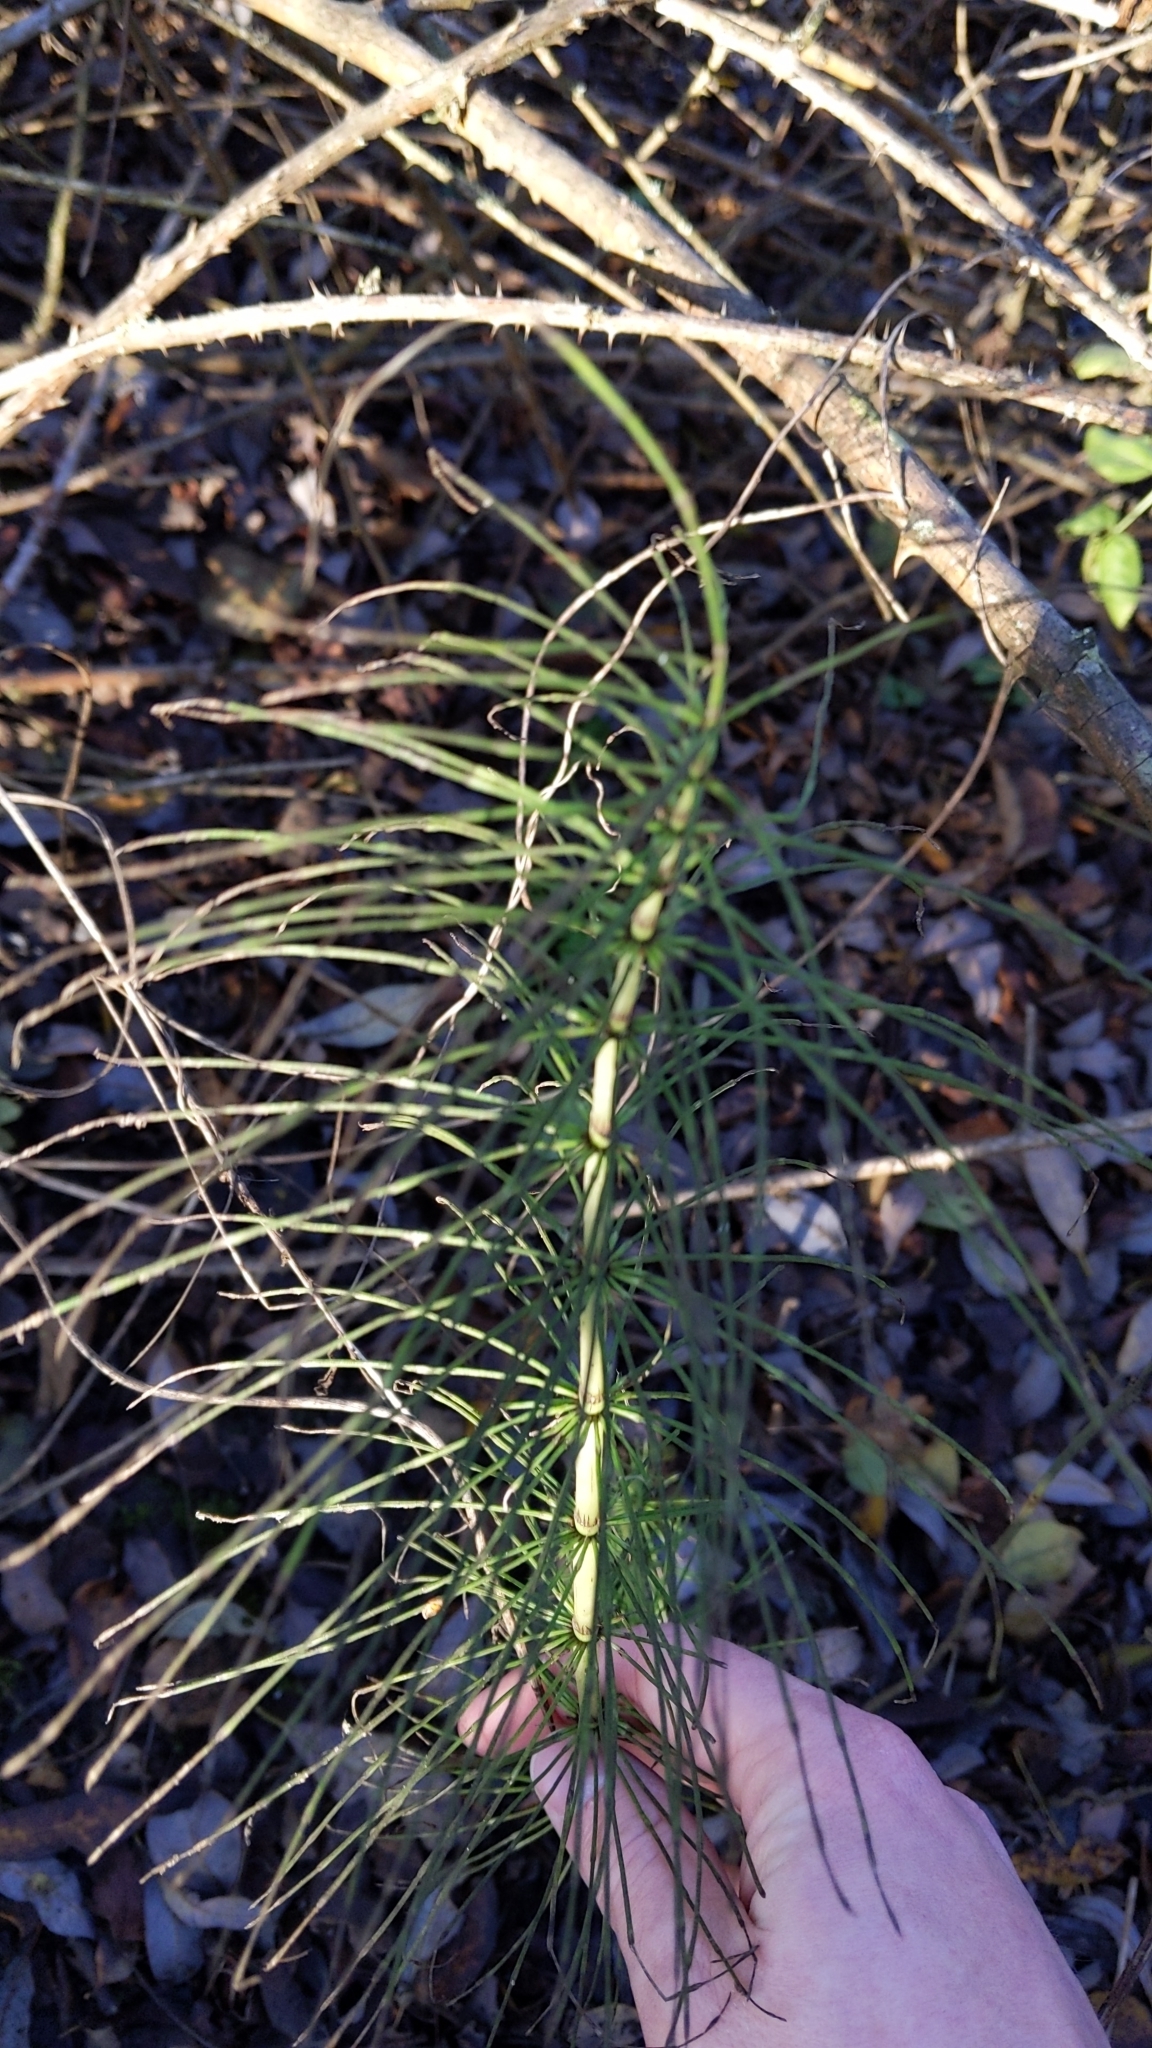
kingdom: Plantae
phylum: Tracheophyta
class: Polypodiopsida
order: Equisetales
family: Equisetaceae
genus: Equisetum
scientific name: Equisetum telmateia
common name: Great horsetail
